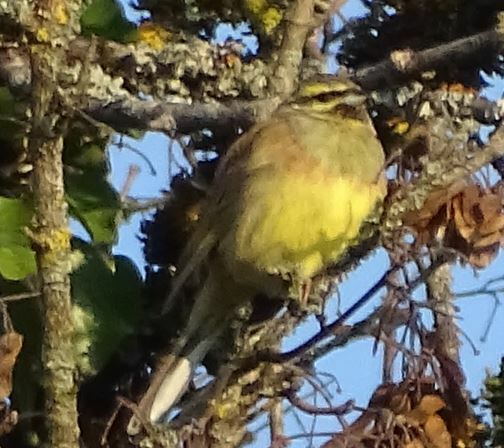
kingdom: Animalia
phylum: Chordata
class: Aves
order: Passeriformes
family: Emberizidae
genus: Emberiza
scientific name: Emberiza cirlus
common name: Cirl bunting
